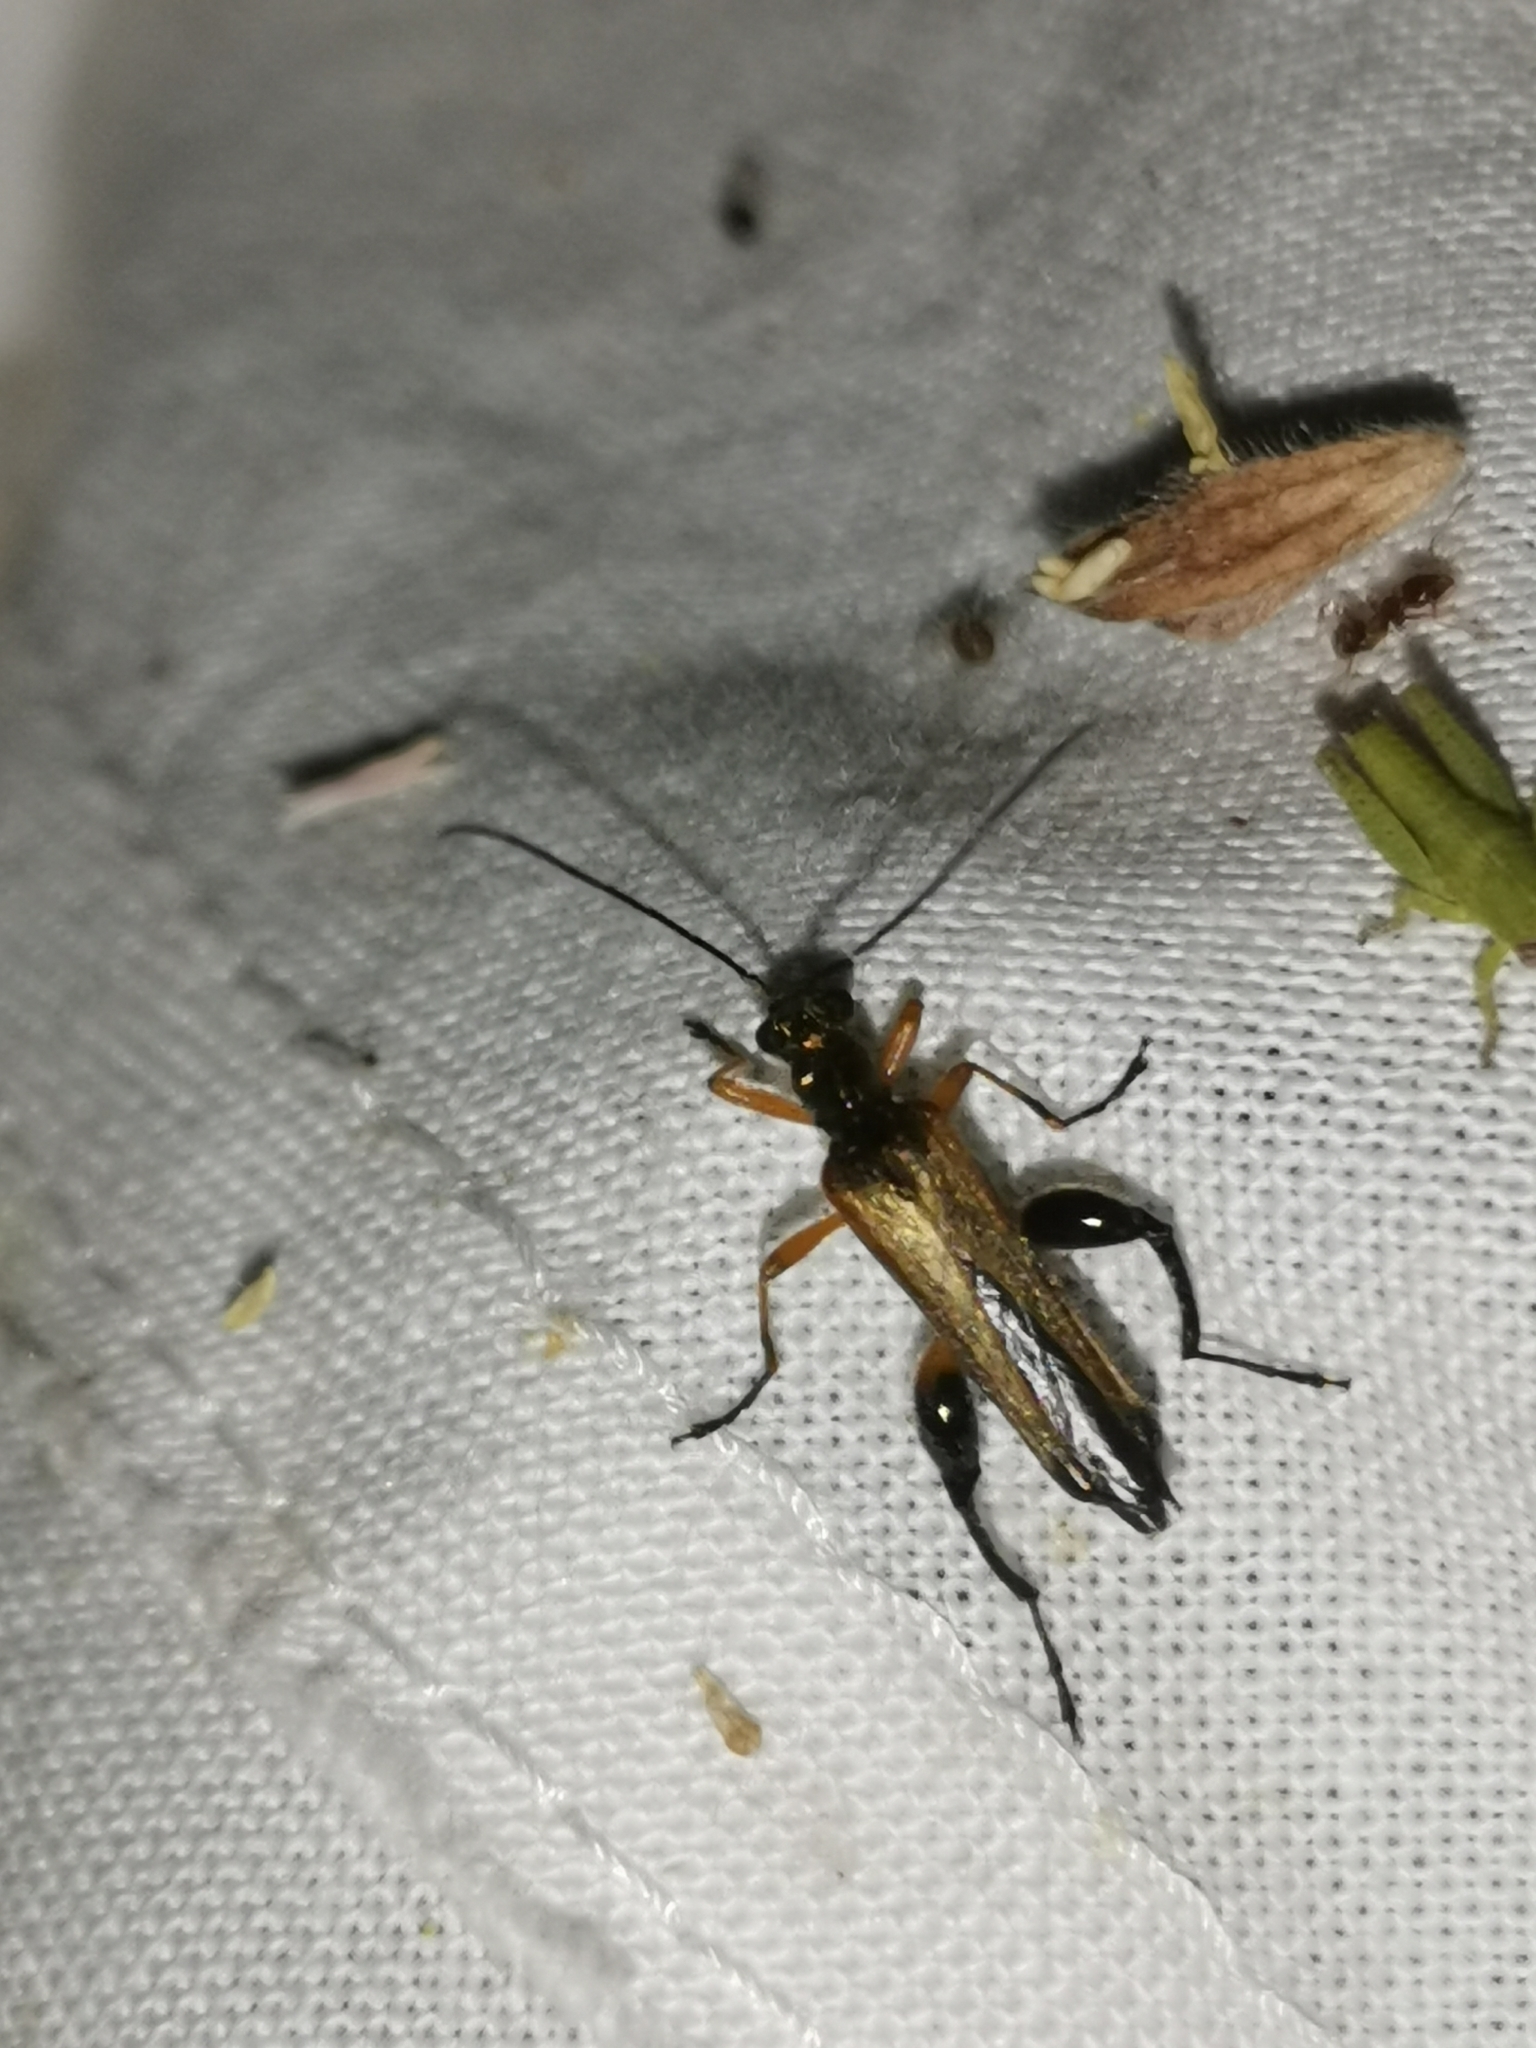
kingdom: Animalia
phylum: Arthropoda
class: Insecta
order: Coleoptera
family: Oedemeridae
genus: Oedemera
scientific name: Oedemera podagrariae
